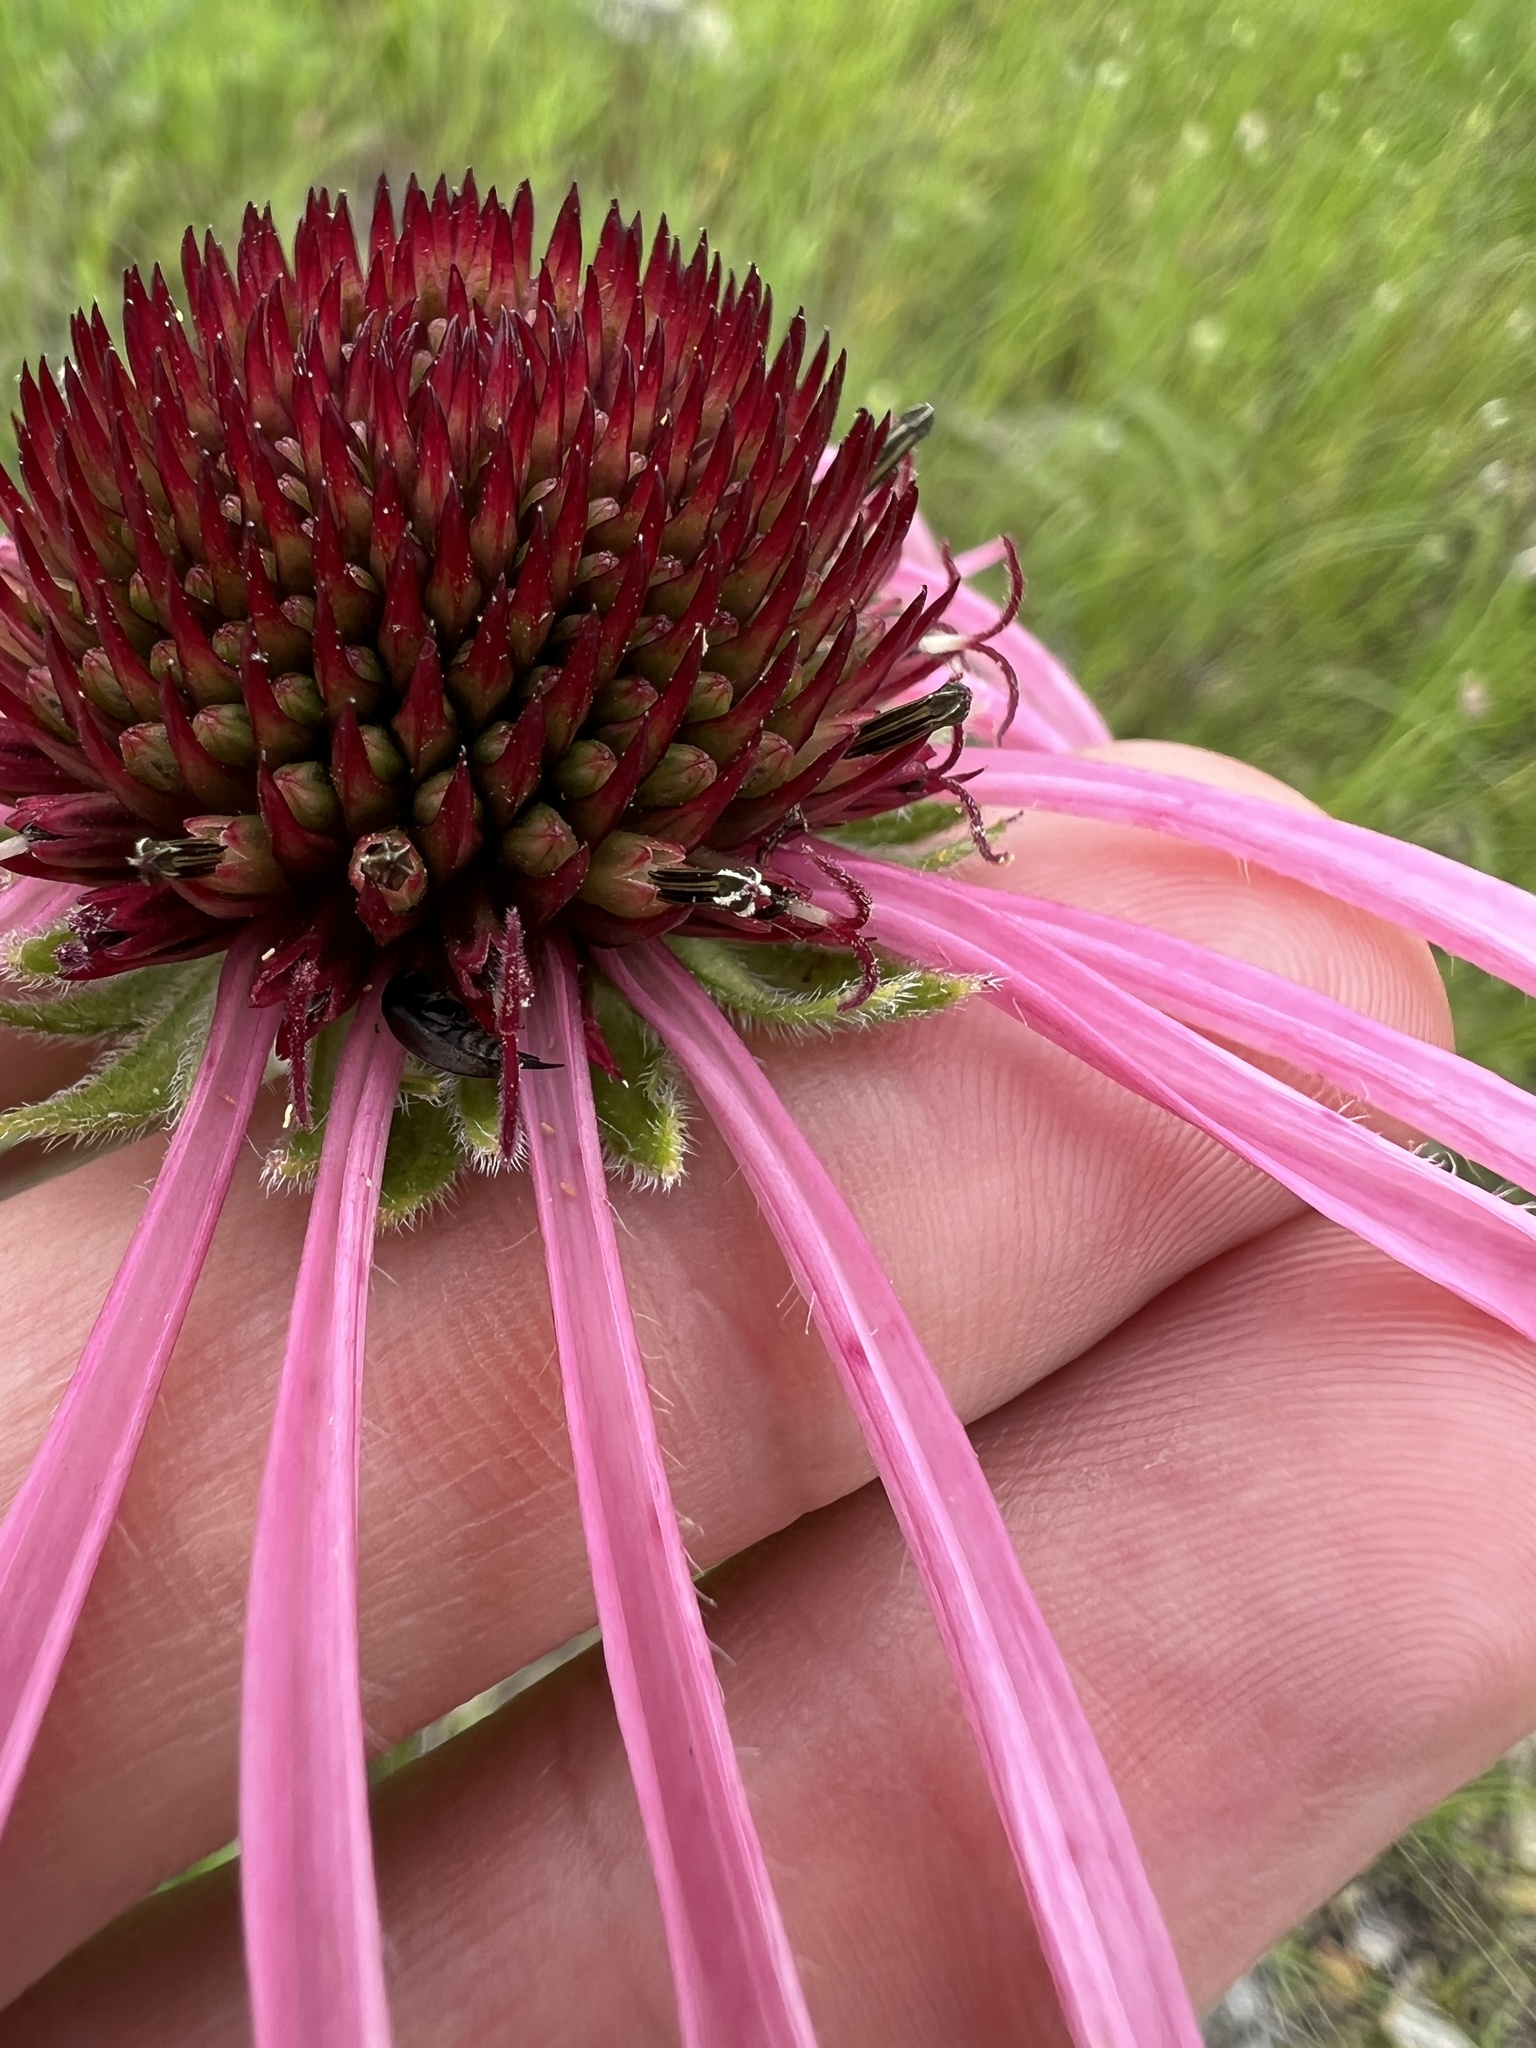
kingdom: Plantae
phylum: Tracheophyta
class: Magnoliopsida
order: Asterales
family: Asteraceae
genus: Echinacea
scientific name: Echinacea pallida
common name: Pale echinacea
